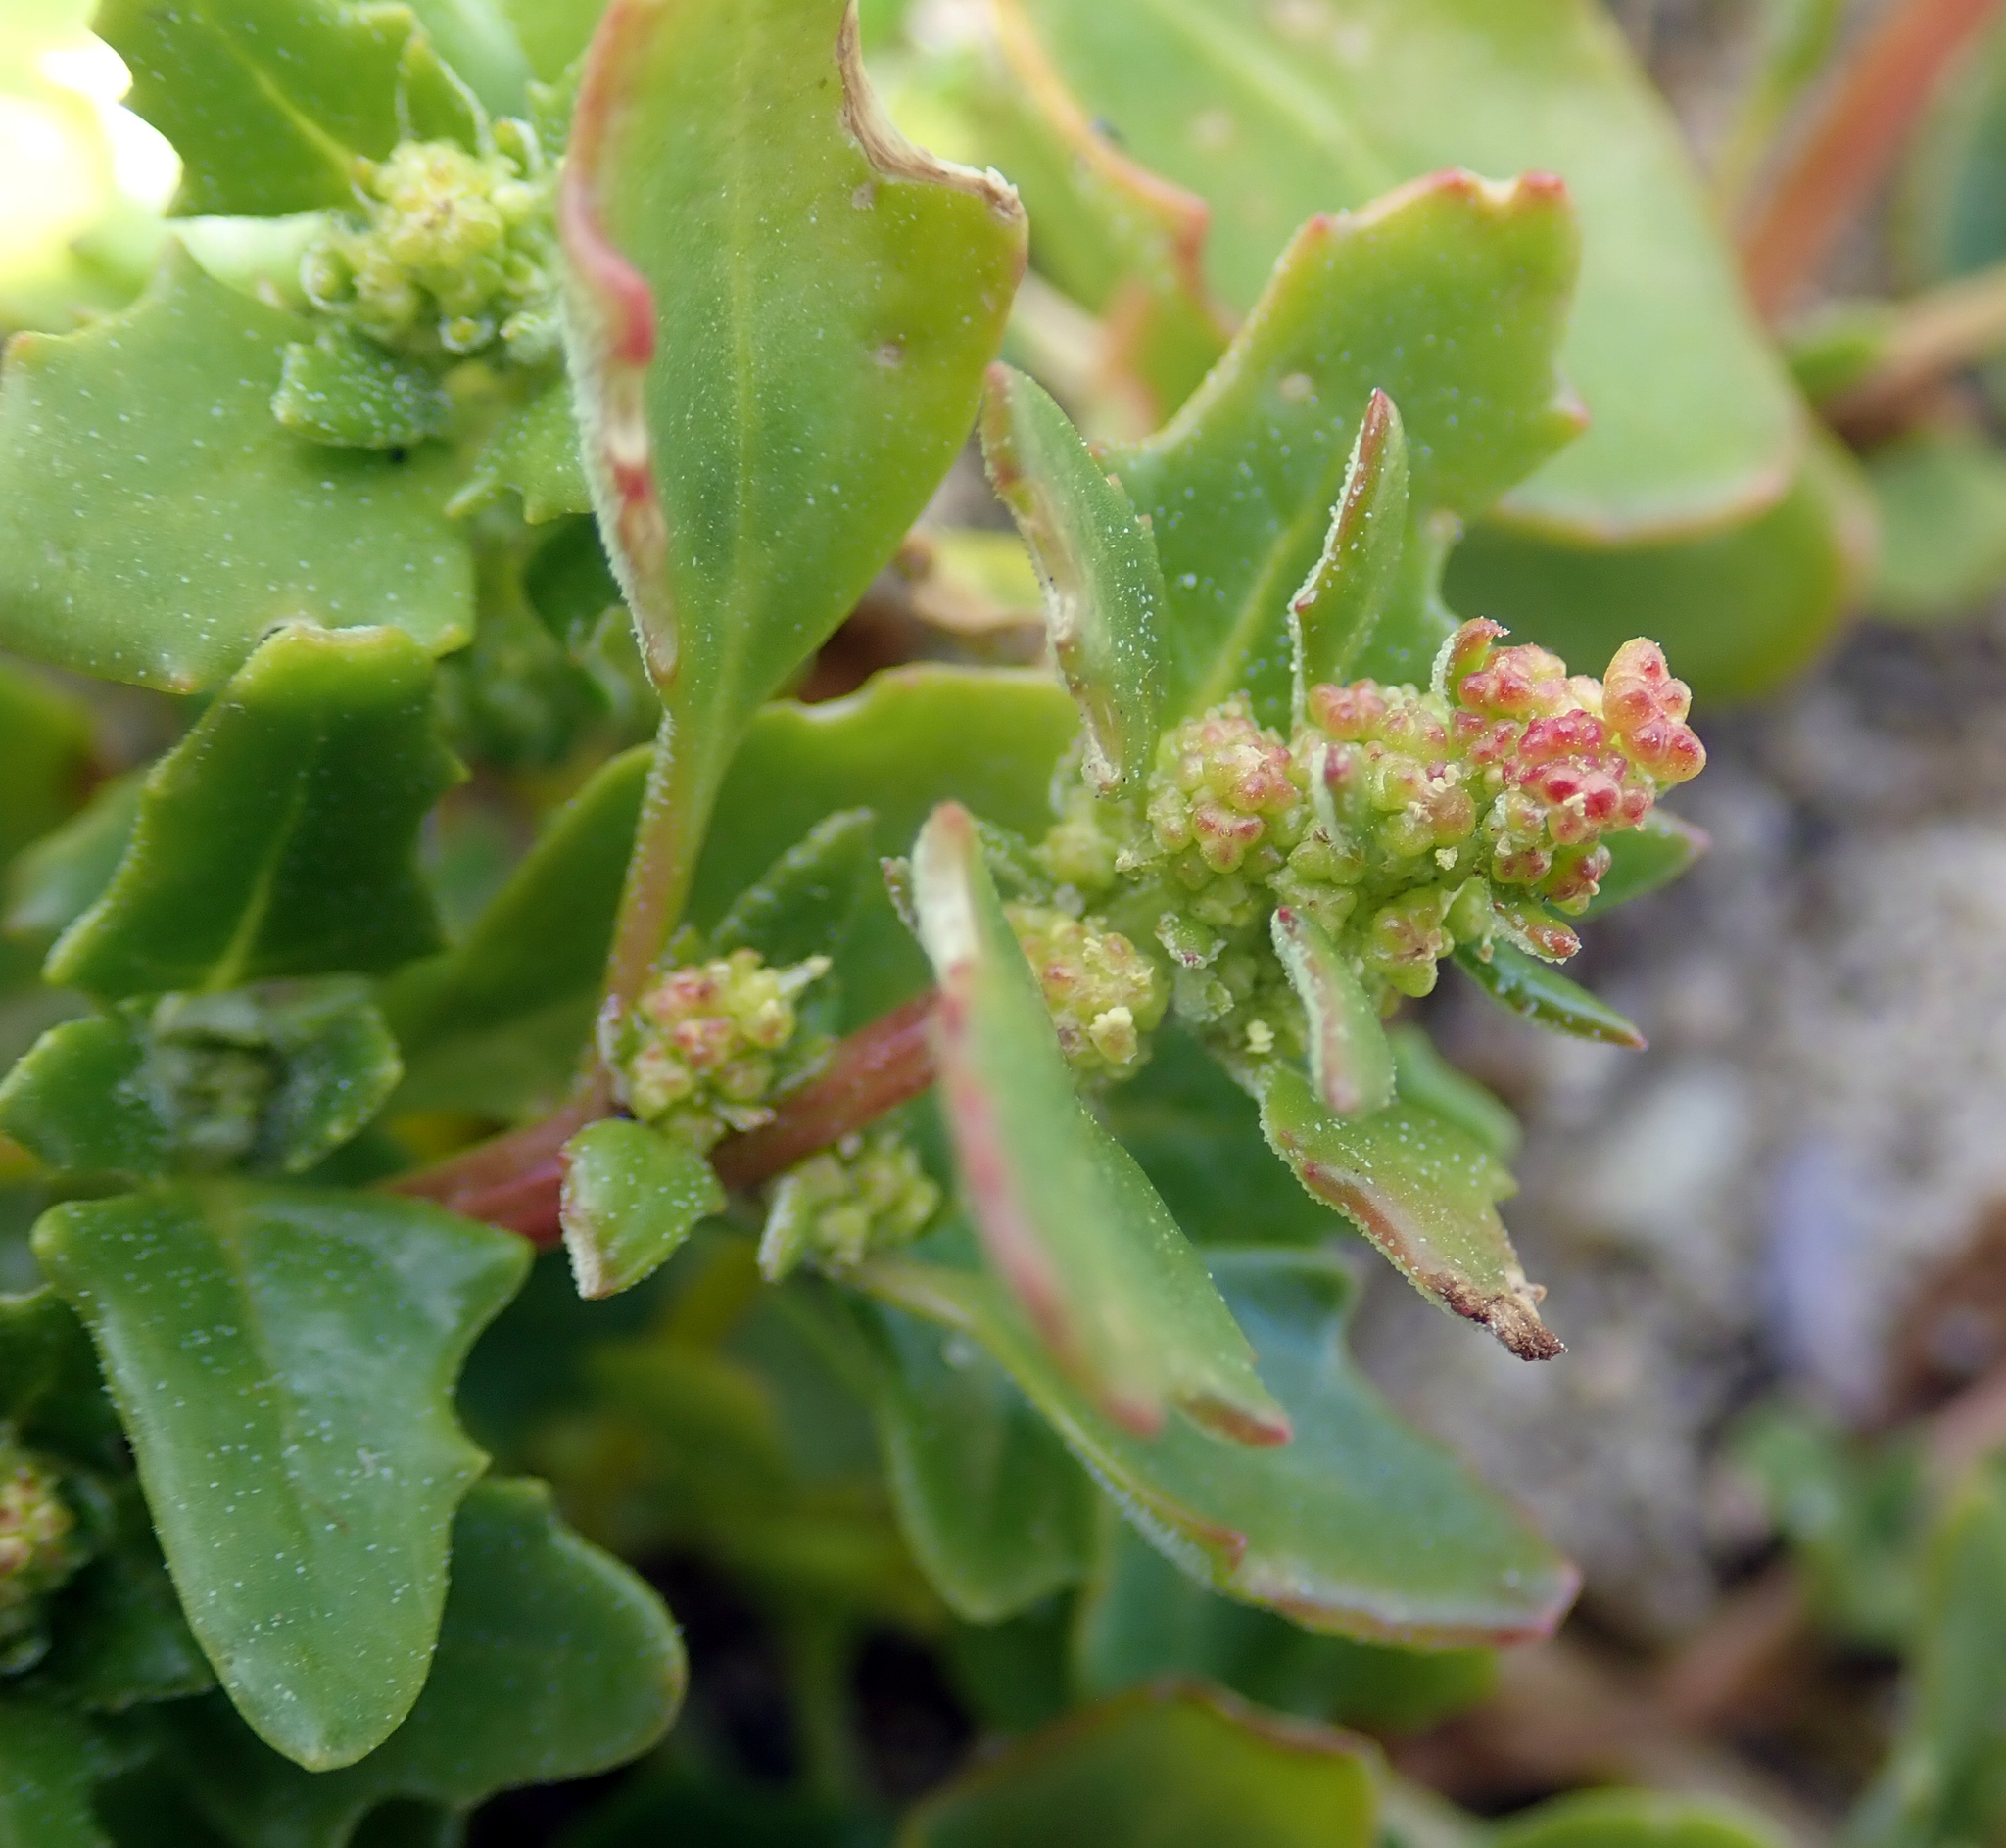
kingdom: Plantae
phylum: Tracheophyta
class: Magnoliopsida
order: Caryophyllales
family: Amaranthaceae
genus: Oxybasis
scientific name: Oxybasis ambigua
